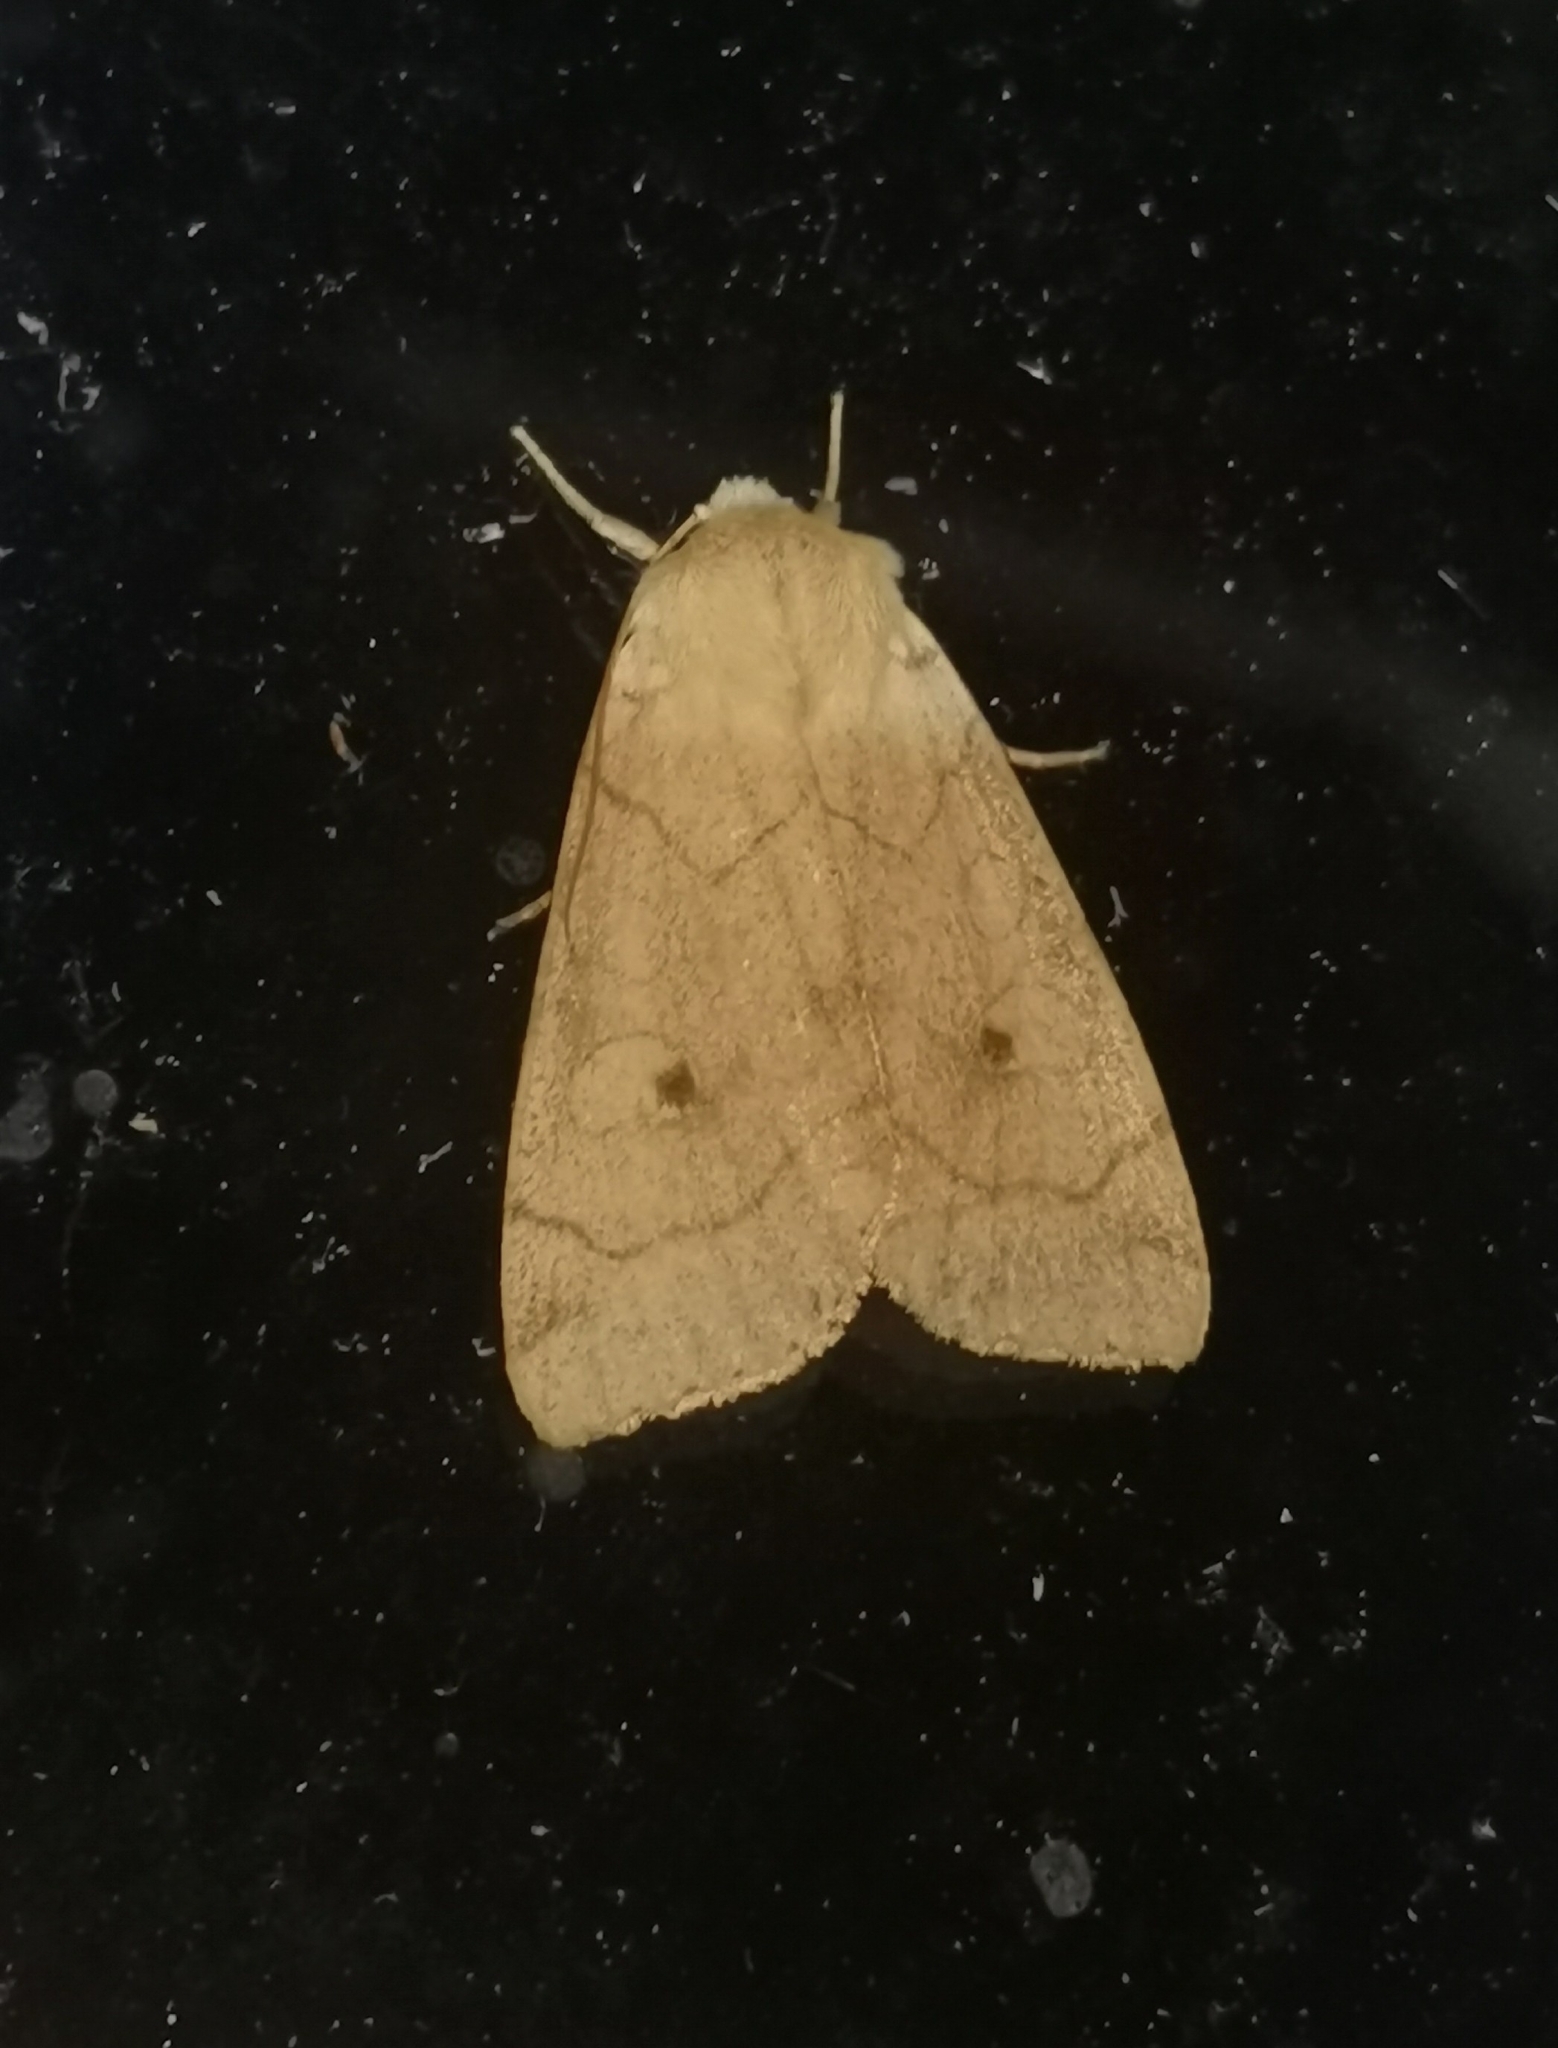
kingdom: Animalia
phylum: Arthropoda
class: Insecta
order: Lepidoptera
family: Noctuidae
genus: Enargia
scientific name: Enargia paleacea
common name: Angle-striped sallow
